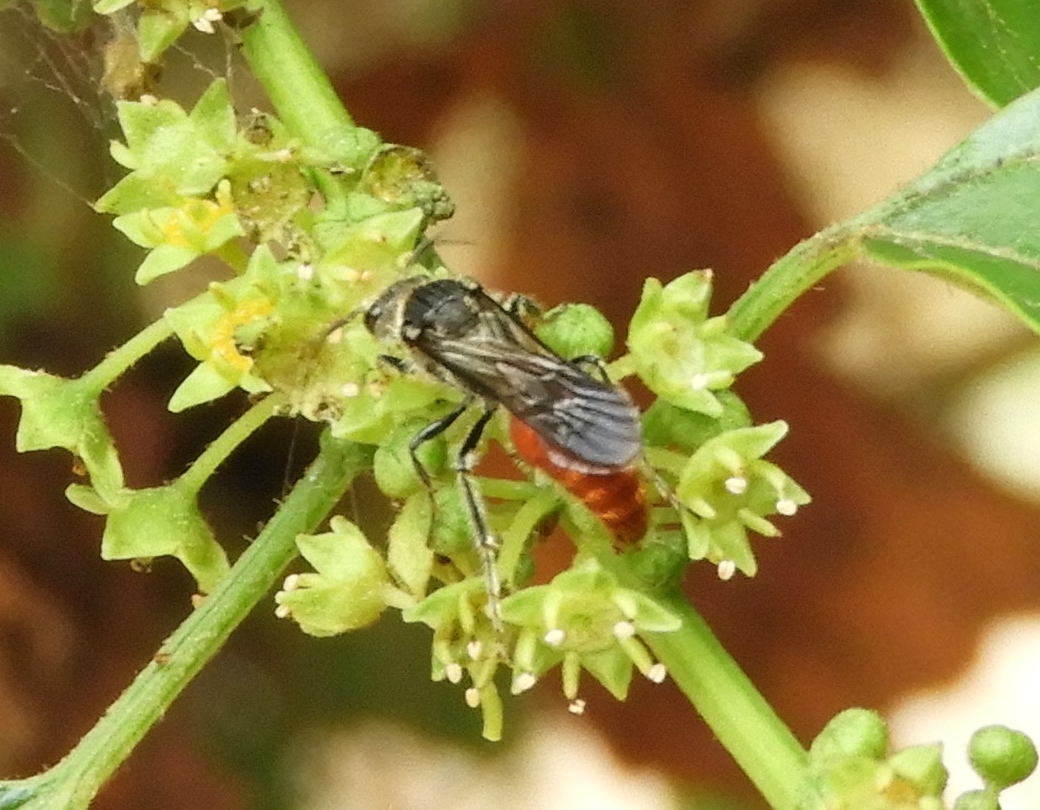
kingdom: Animalia
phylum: Arthropoda
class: Insecta
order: Hymenoptera
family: Mutillidae
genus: Timulla
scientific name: Timulla
